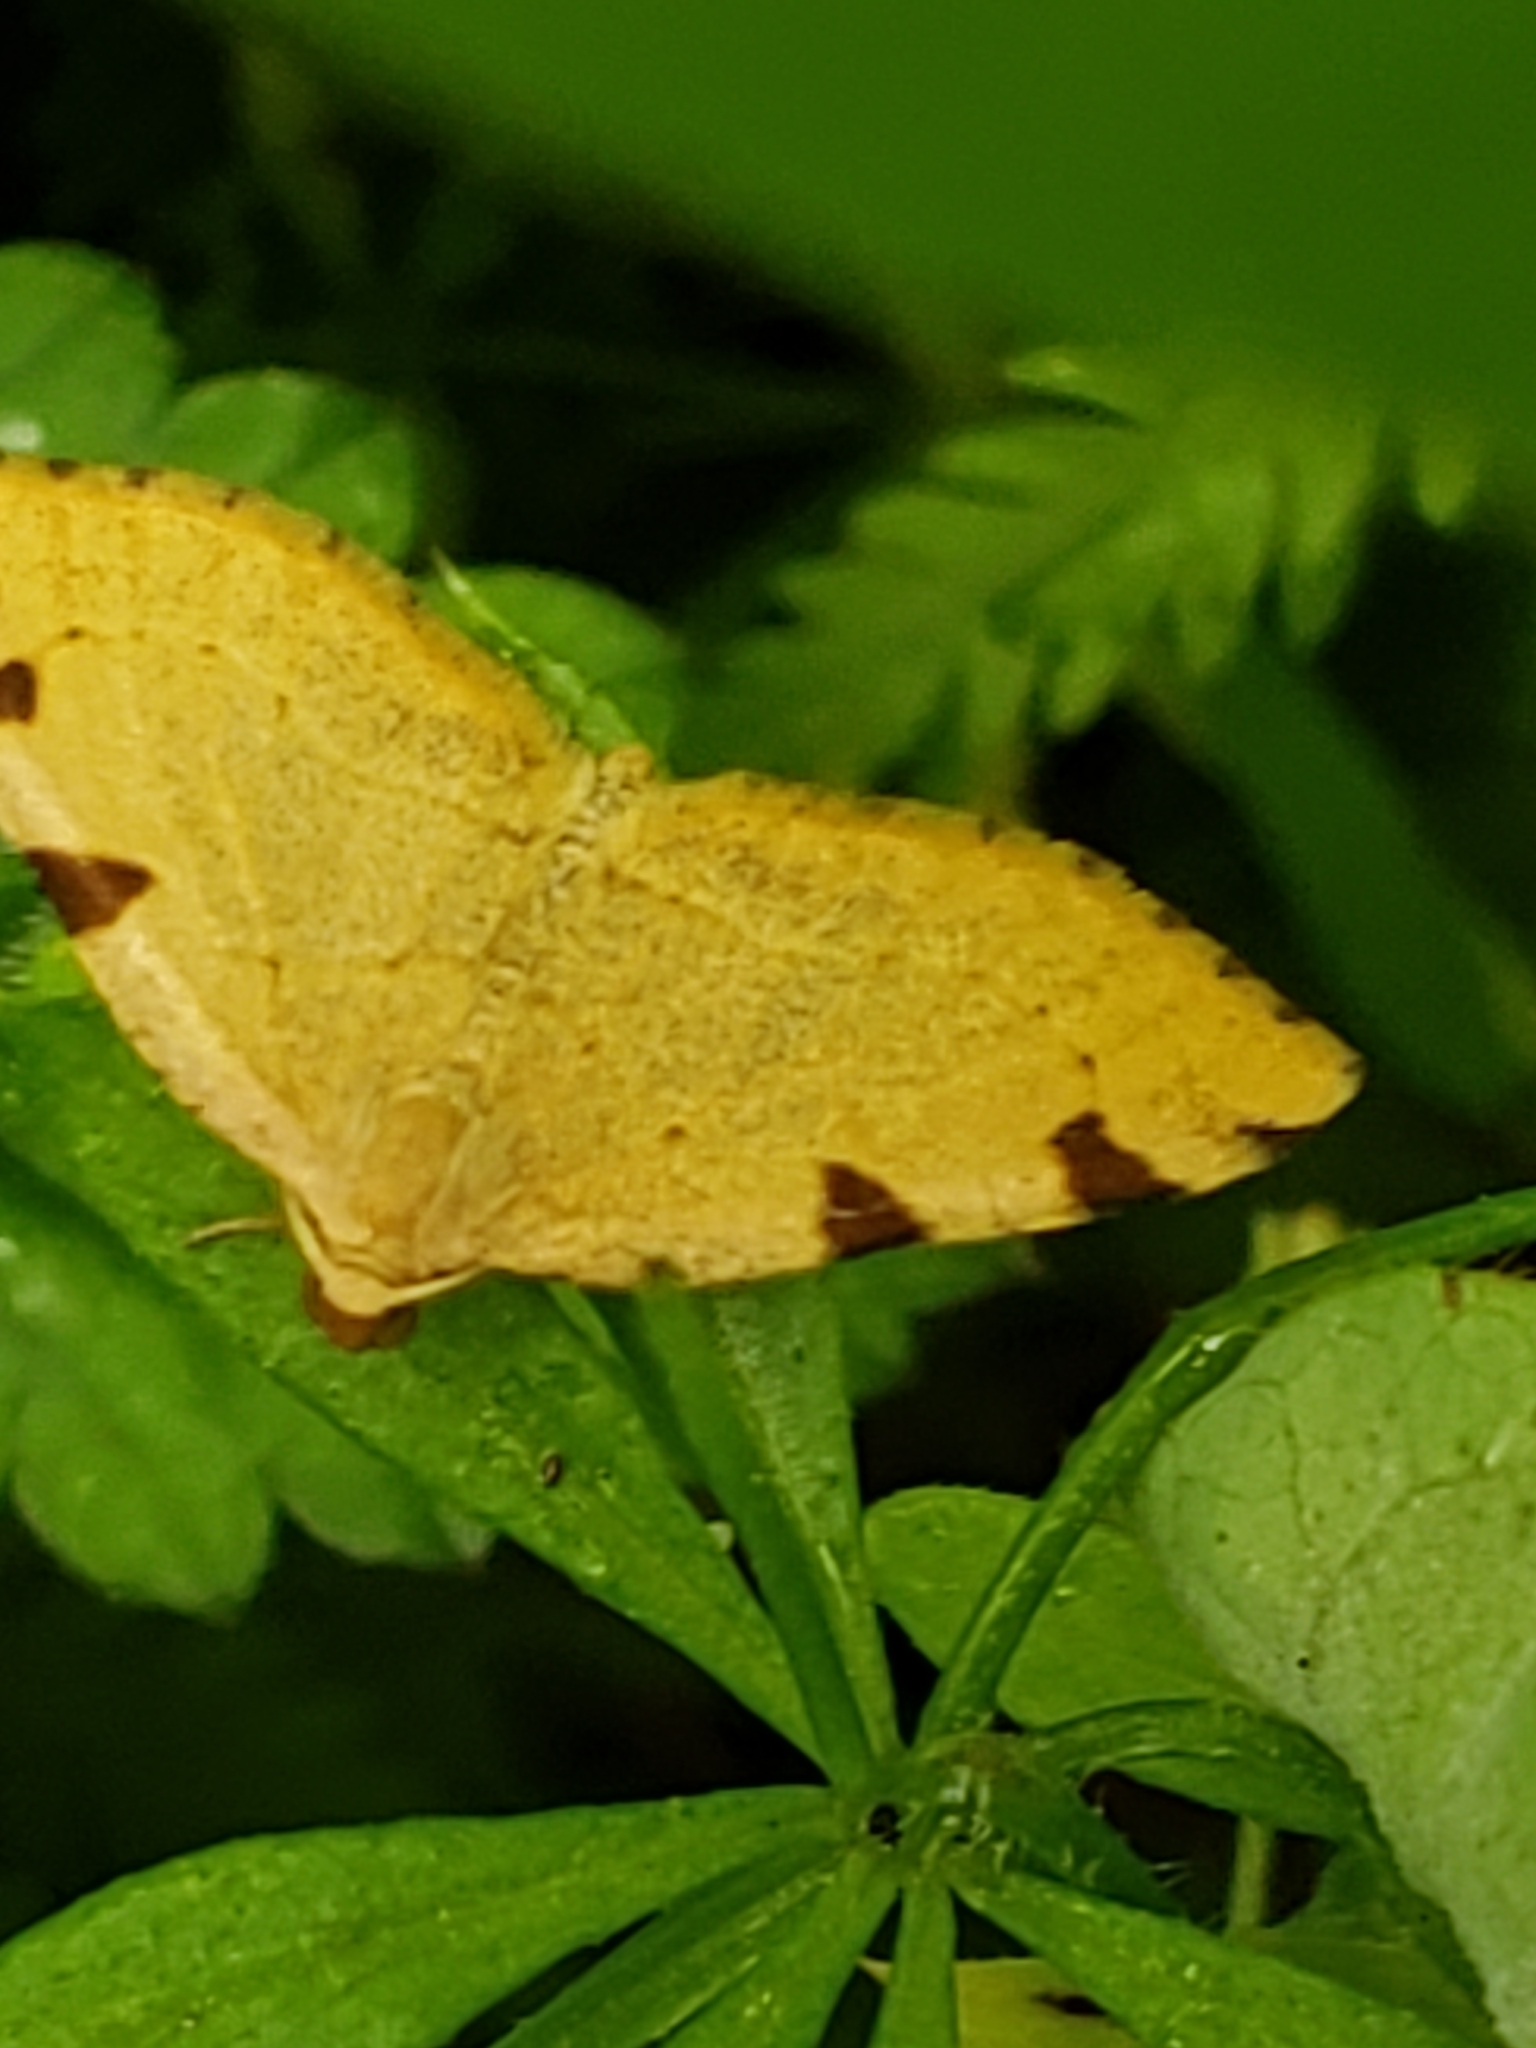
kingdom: Animalia
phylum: Arthropoda
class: Insecta
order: Lepidoptera
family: Geometridae
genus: Heterophleps
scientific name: Heterophleps triguttaria
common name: Three-spotted fillip
